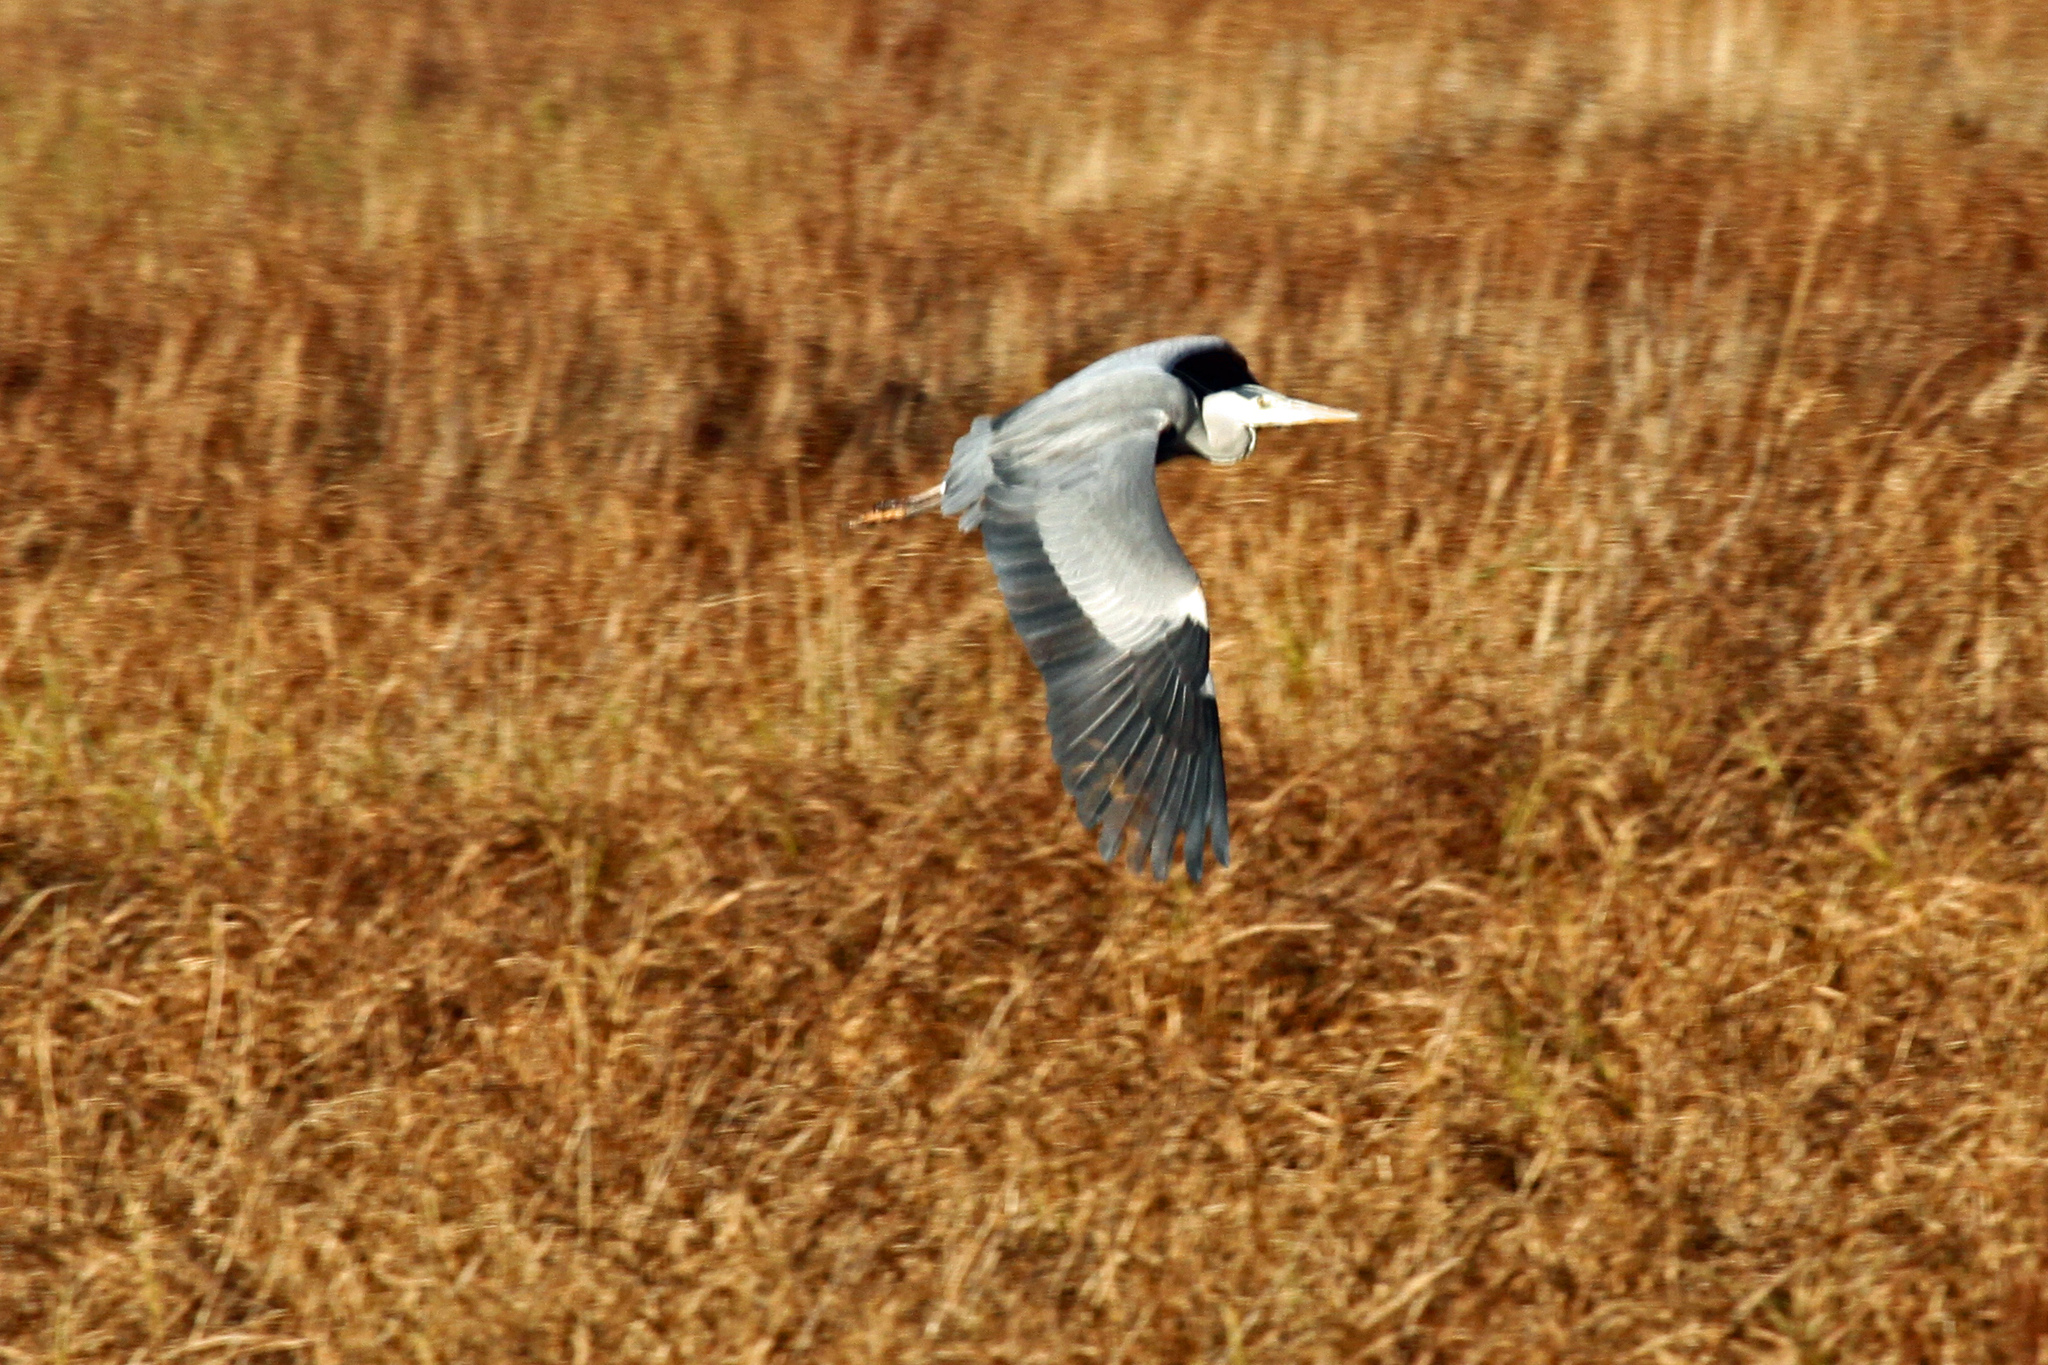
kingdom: Animalia
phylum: Chordata
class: Aves
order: Pelecaniformes
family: Ardeidae
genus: Ardea
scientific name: Ardea cinerea
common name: Grey heron
